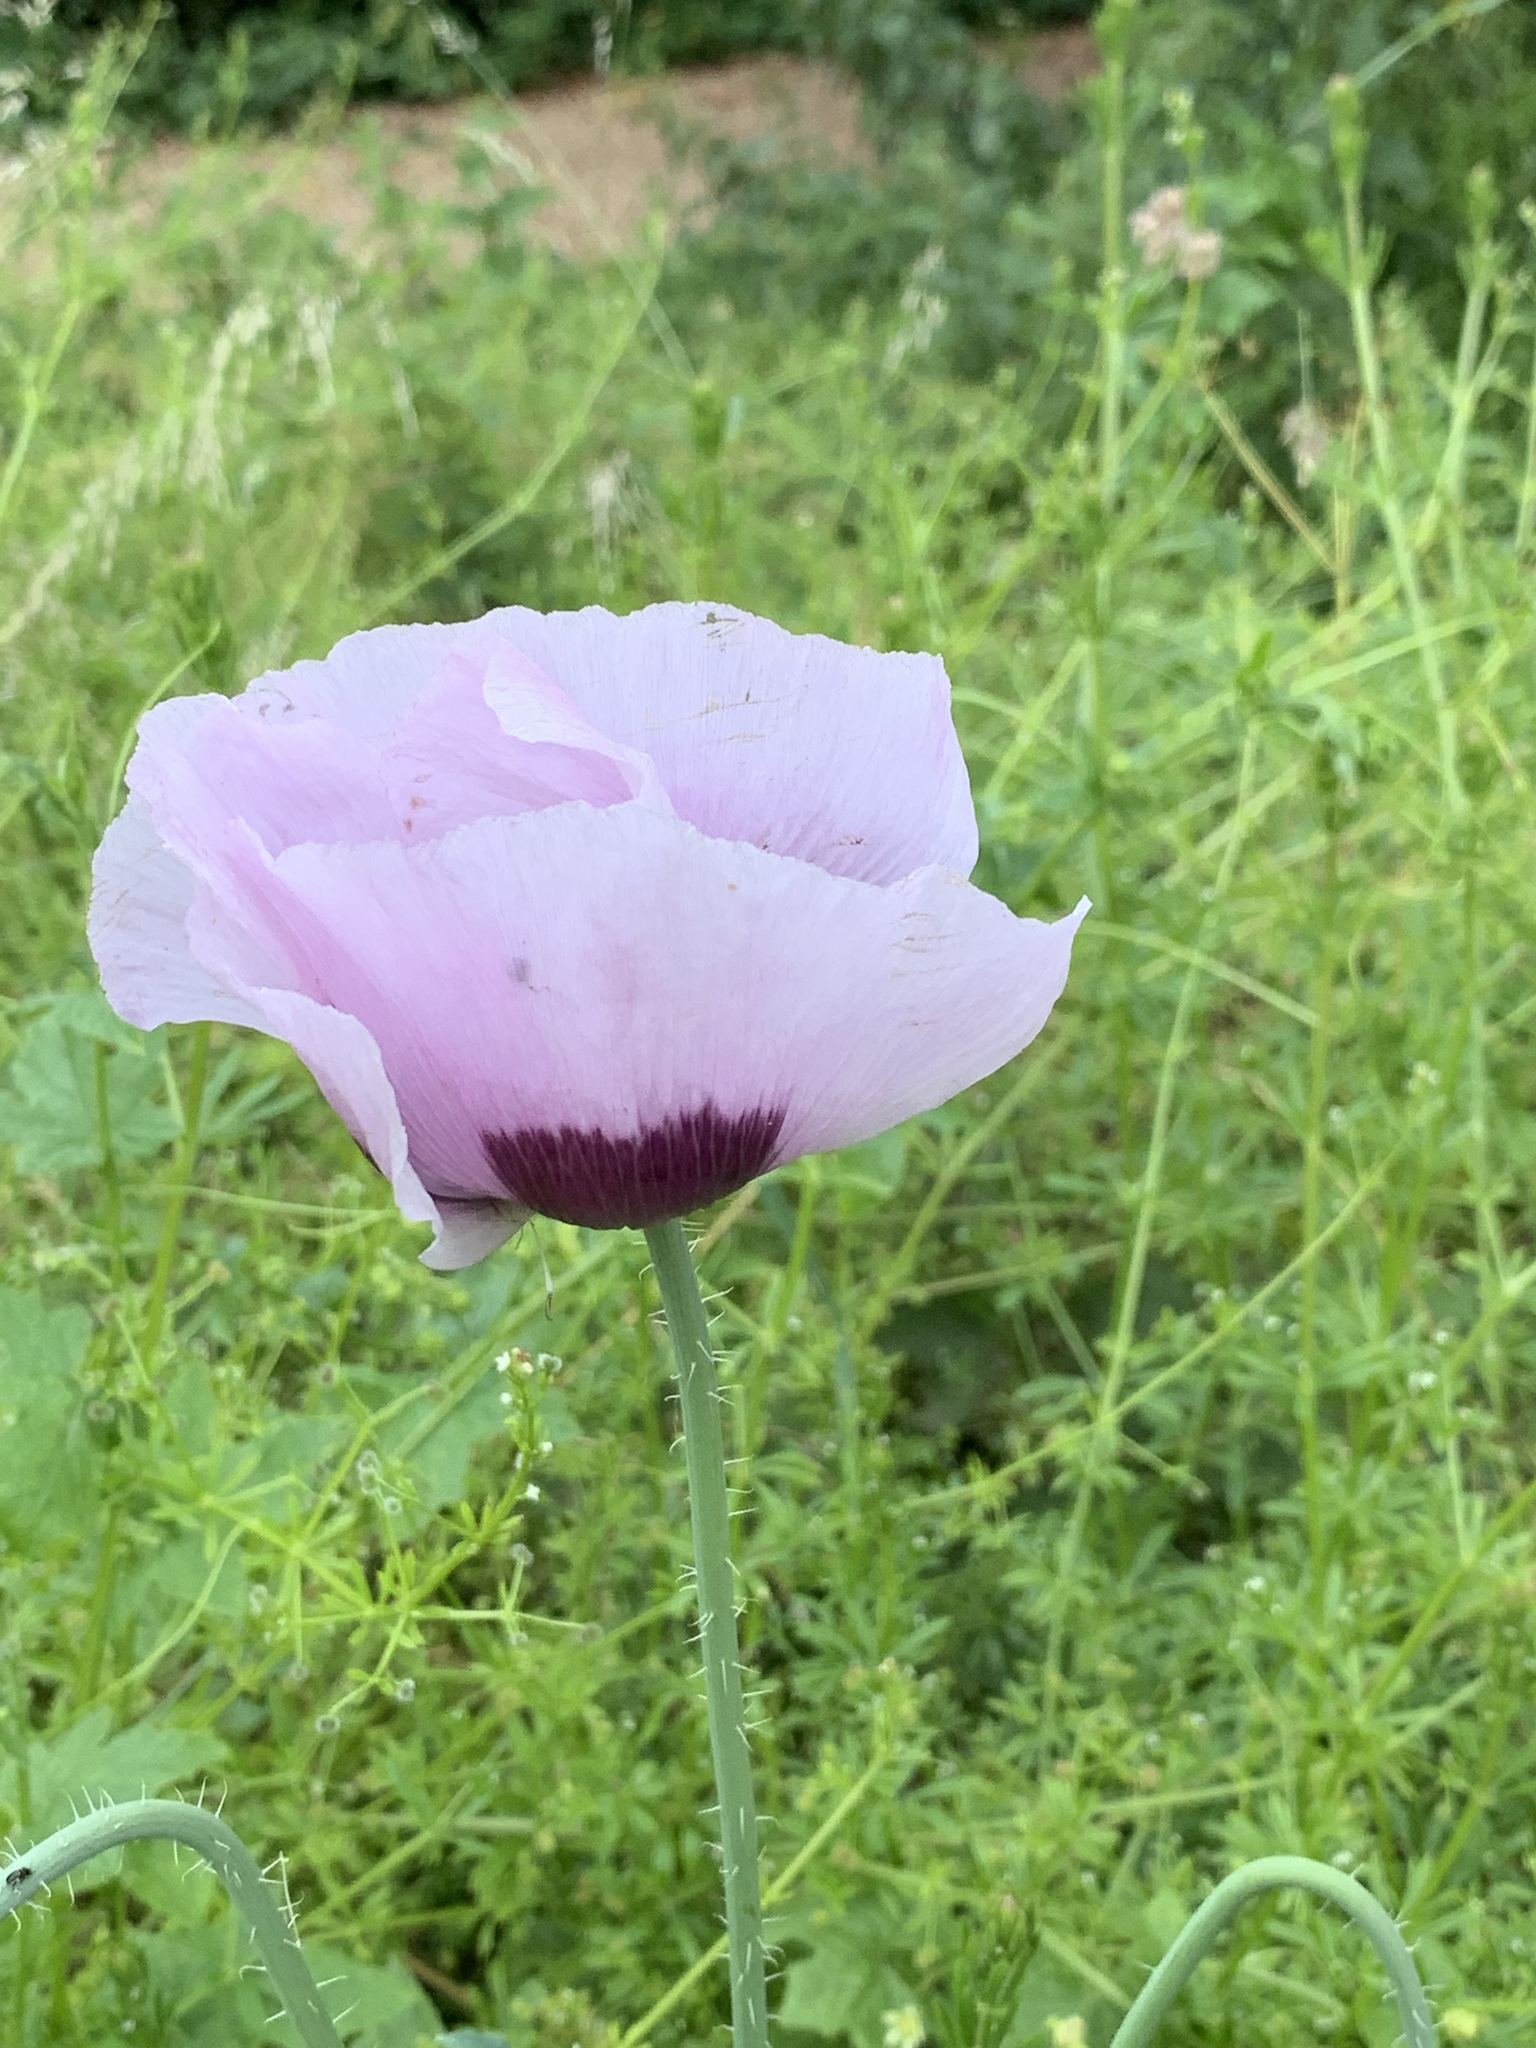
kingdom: Plantae
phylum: Tracheophyta
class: Magnoliopsida
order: Ranunculales
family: Papaveraceae
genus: Papaver
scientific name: Papaver somniferum
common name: Opium poppy
